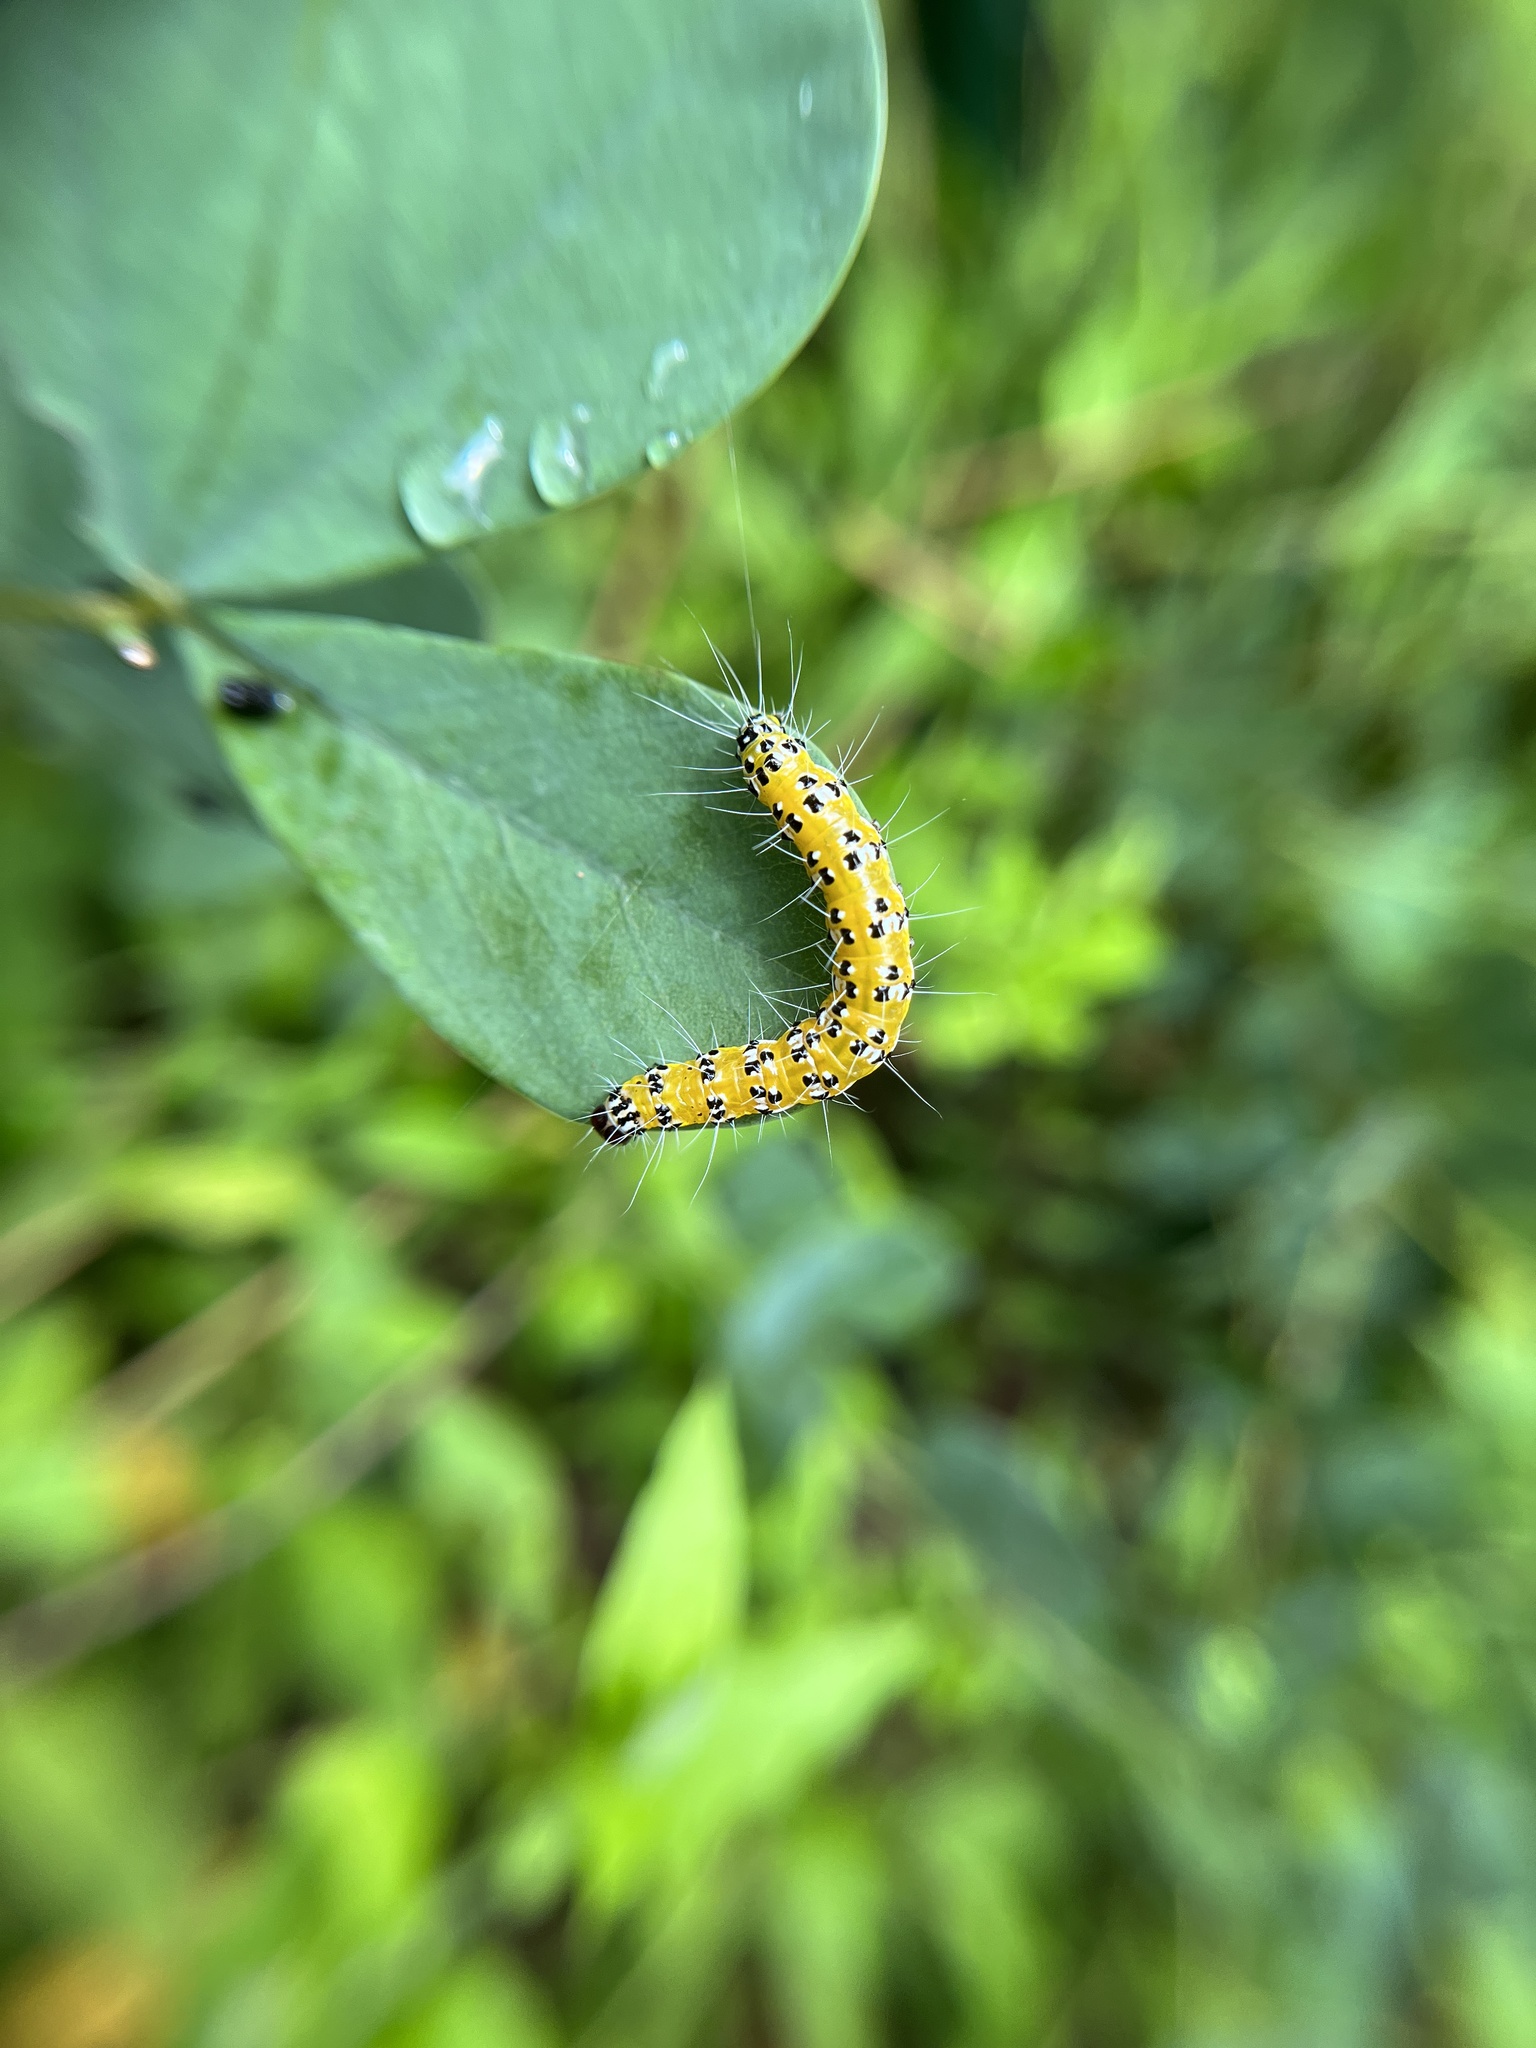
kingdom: Animalia
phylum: Arthropoda
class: Insecta
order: Lepidoptera
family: Crambidae
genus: Uresiphita
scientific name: Uresiphita reversalis
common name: Genista broom moth
